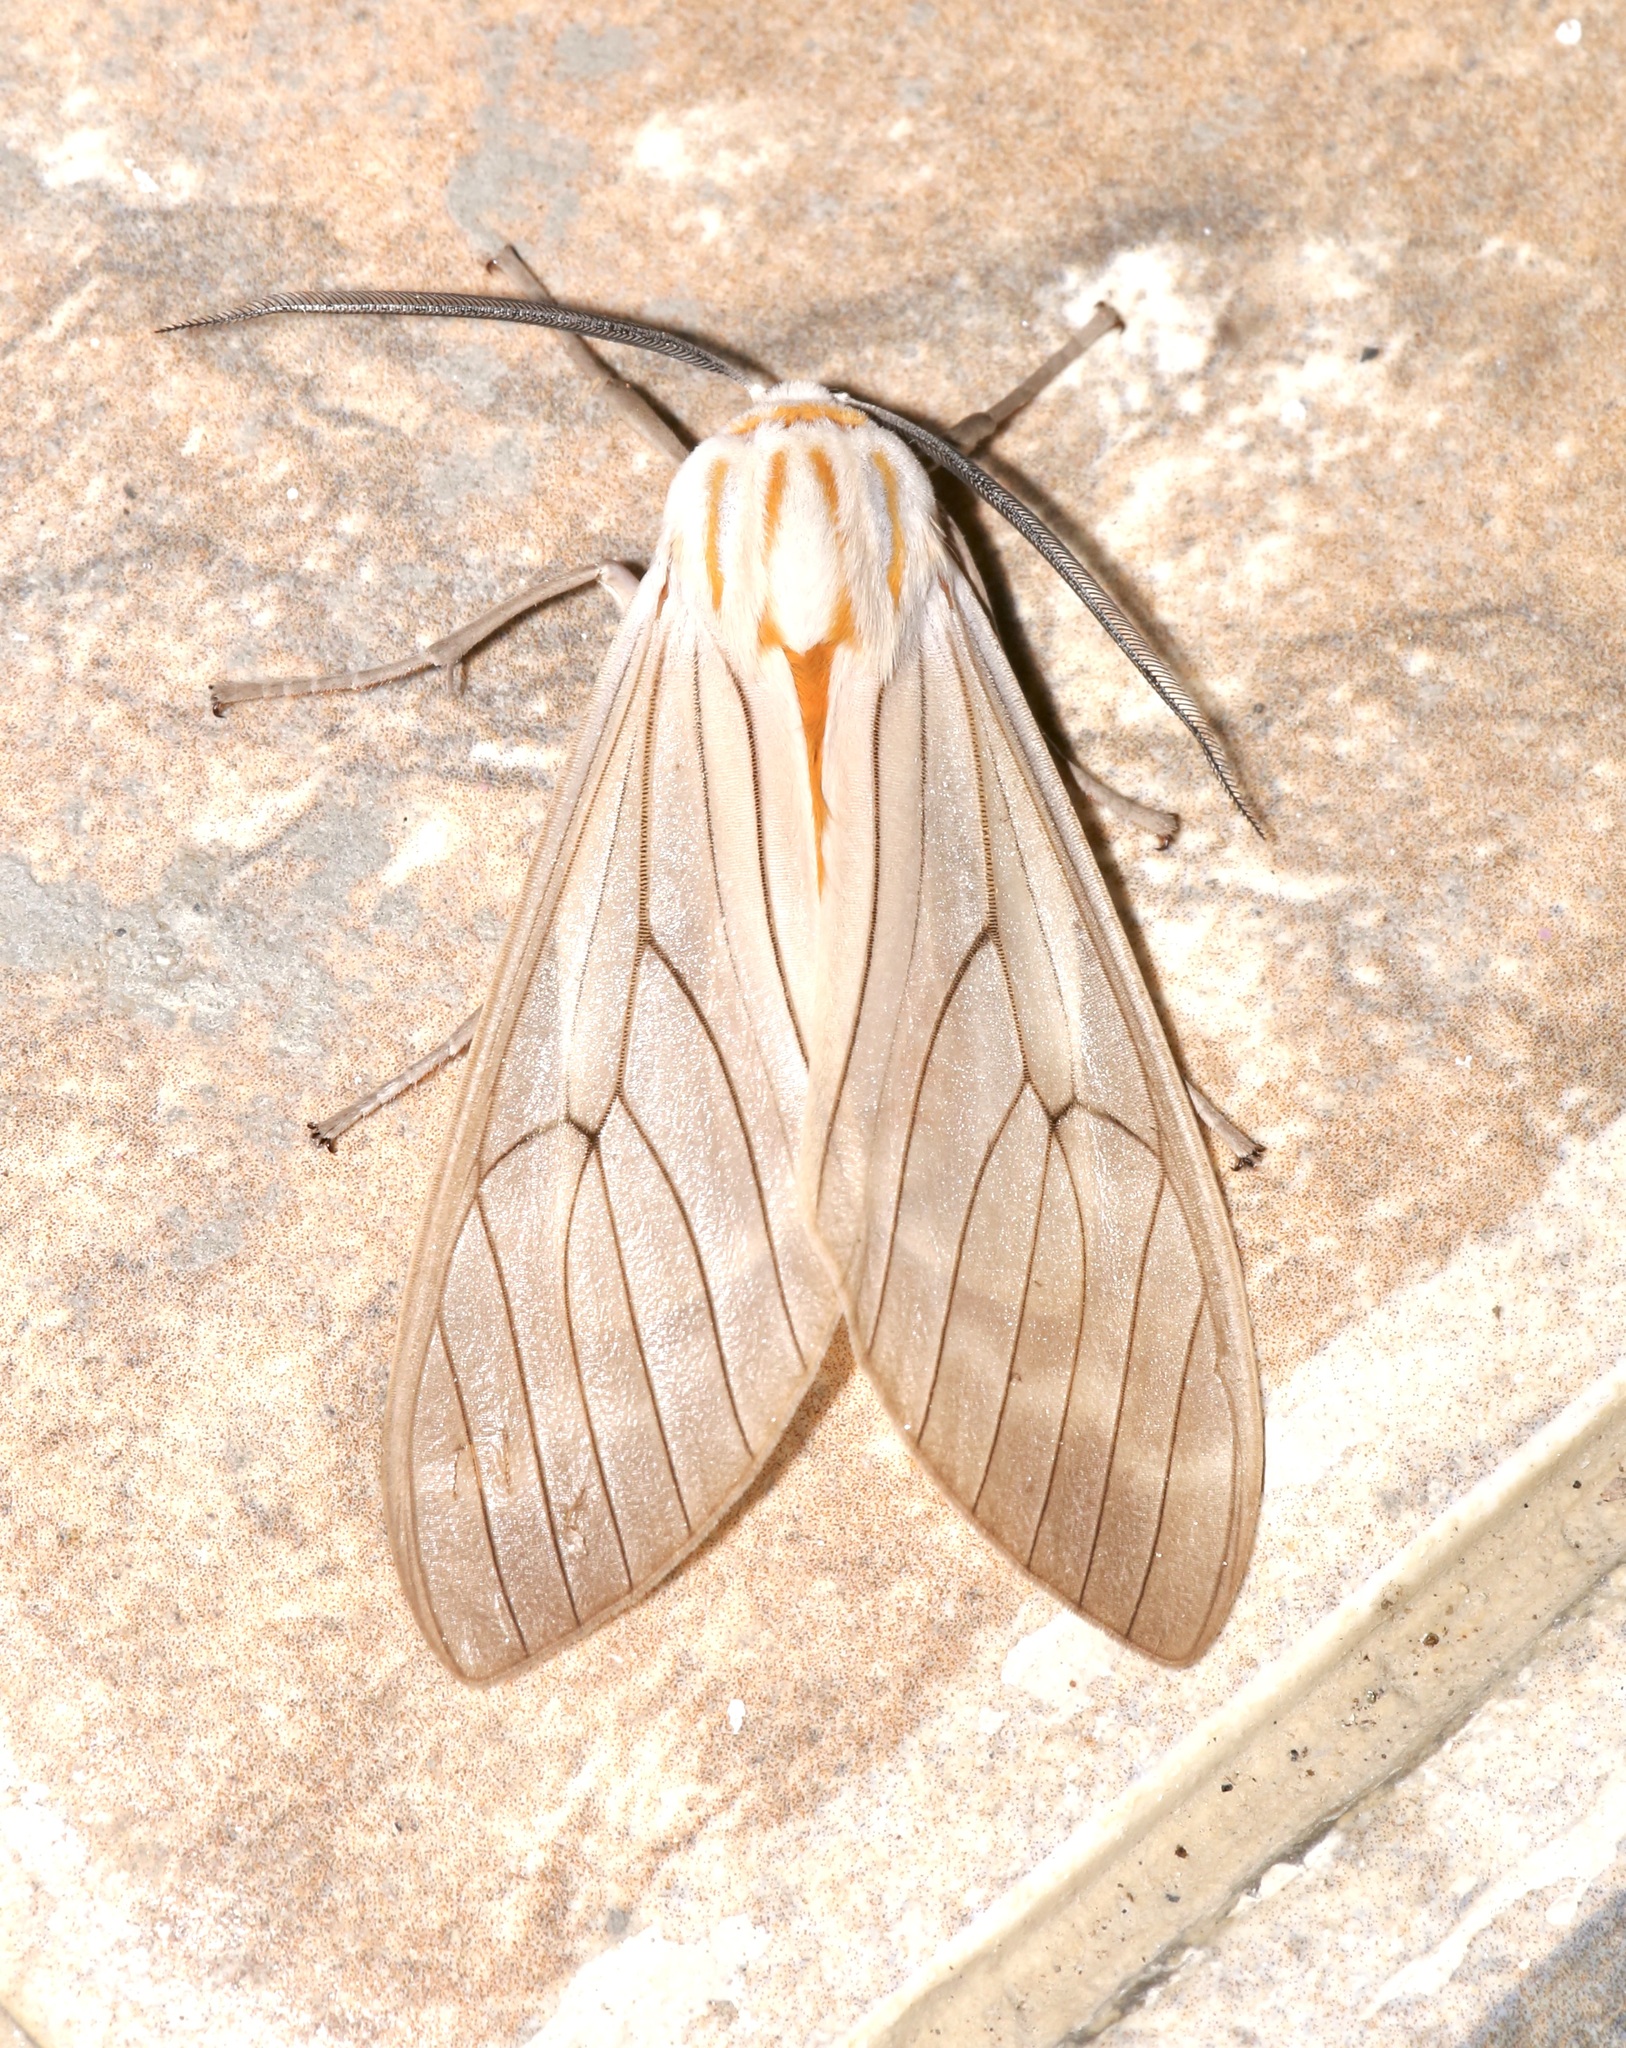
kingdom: Animalia
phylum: Arthropoda
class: Insecta
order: Lepidoptera
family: Erebidae
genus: Amastus
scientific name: Amastus aconia
